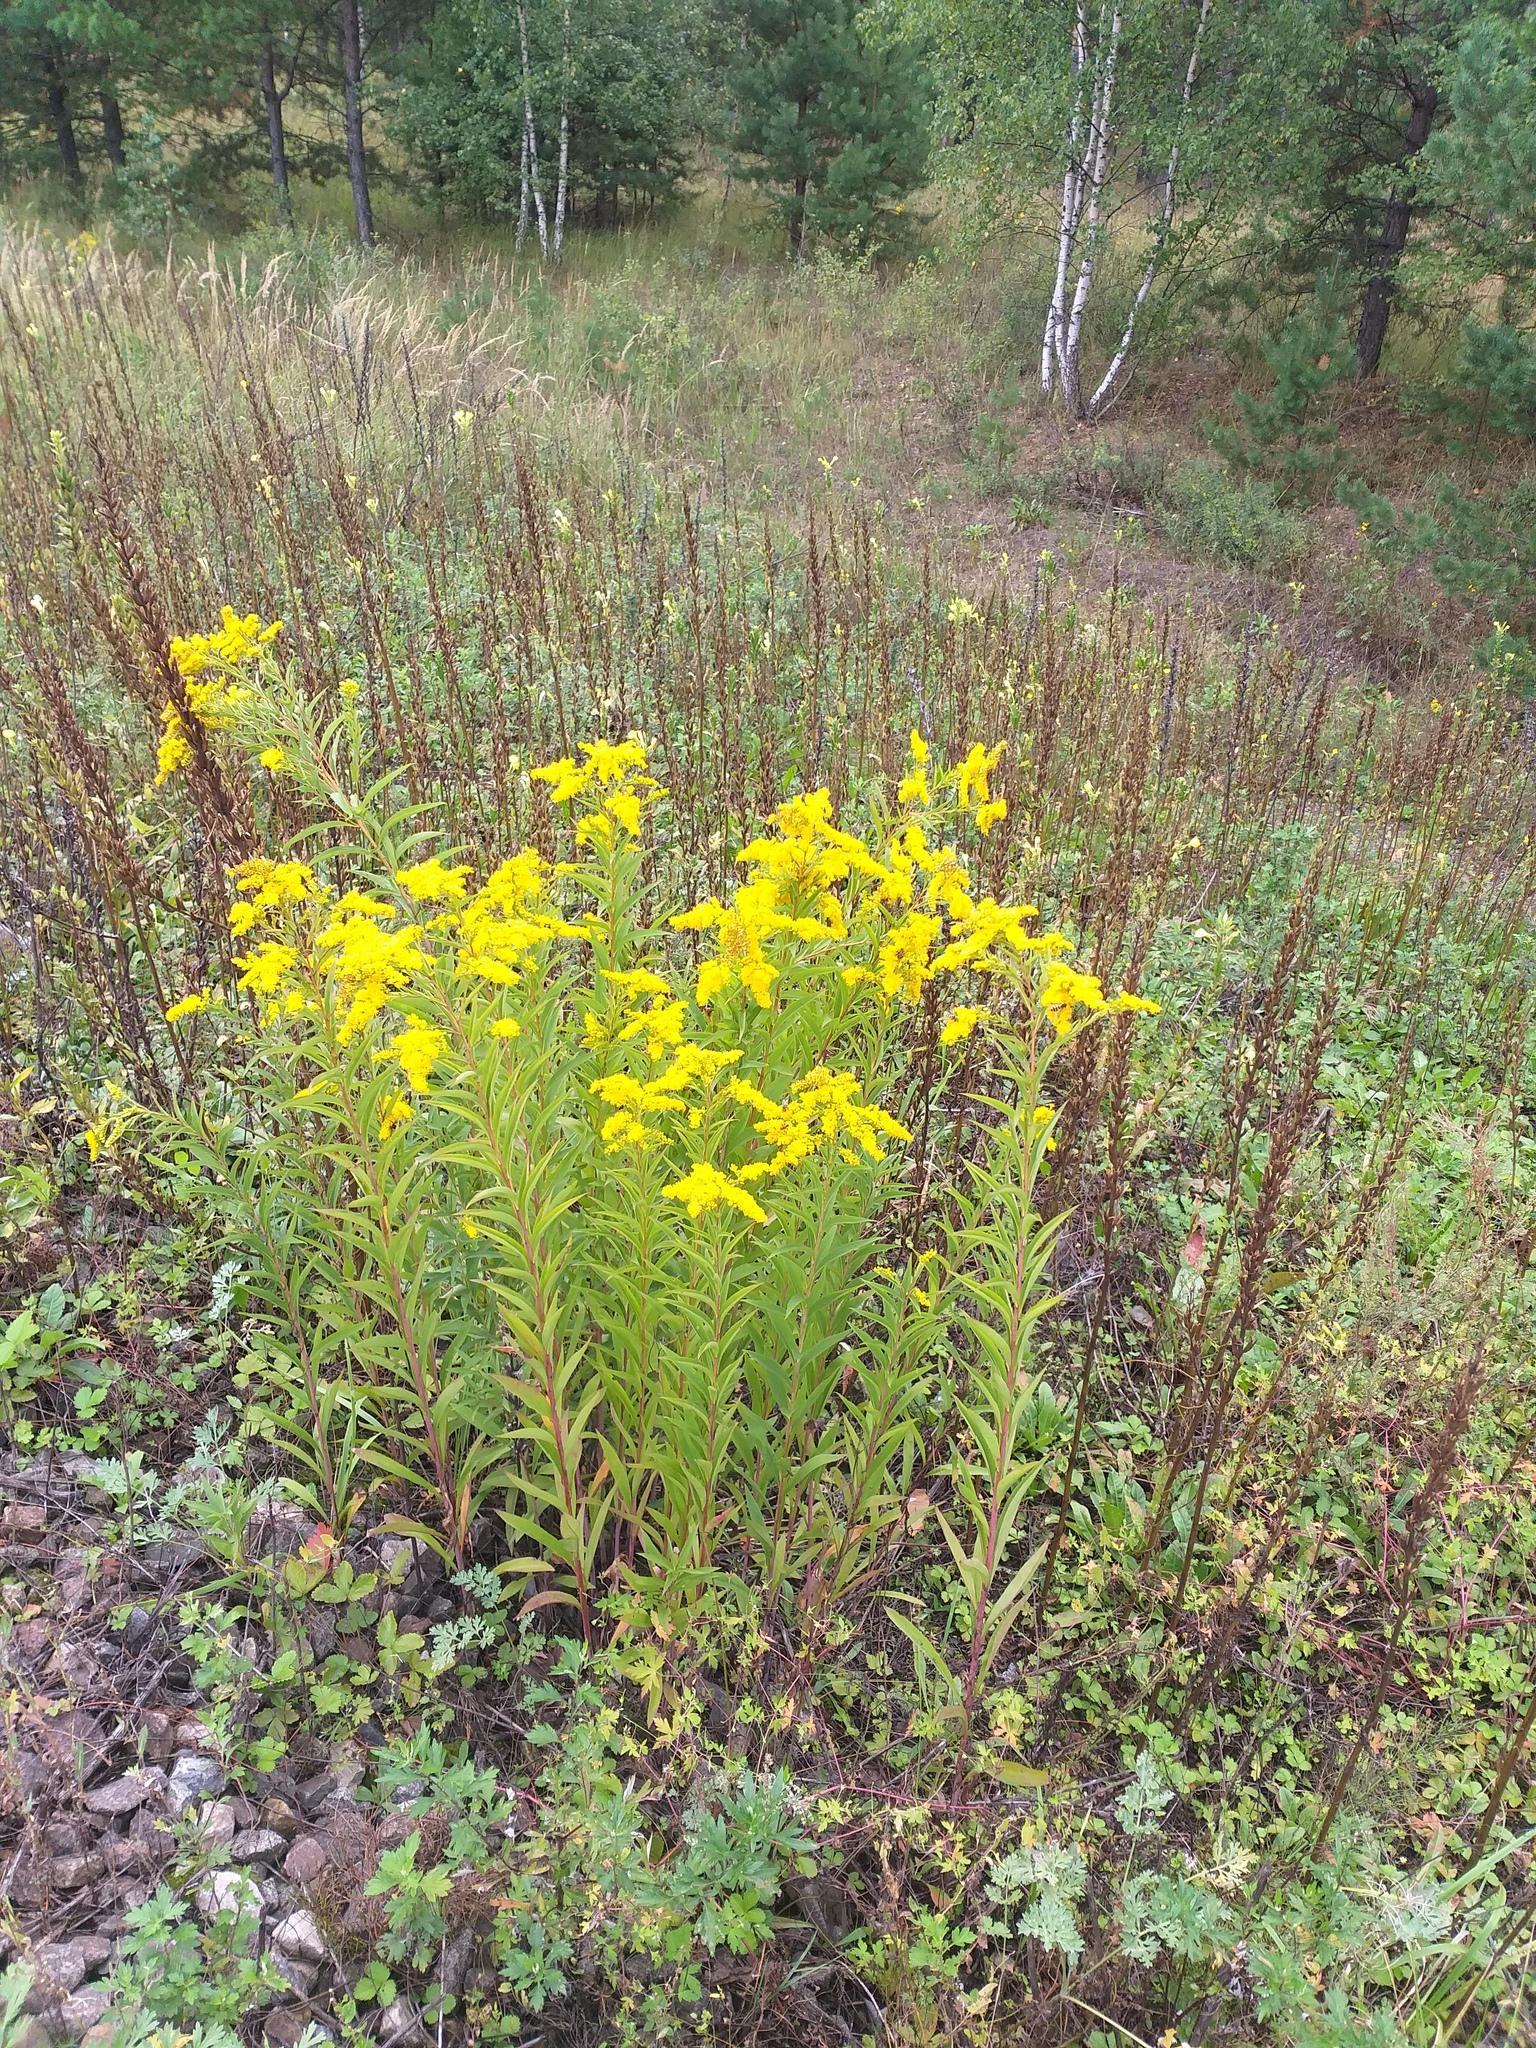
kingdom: Plantae
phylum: Tracheophyta
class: Magnoliopsida
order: Asterales
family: Asteraceae
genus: Solidago
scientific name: Solidago gigantea
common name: Giant goldenrod
